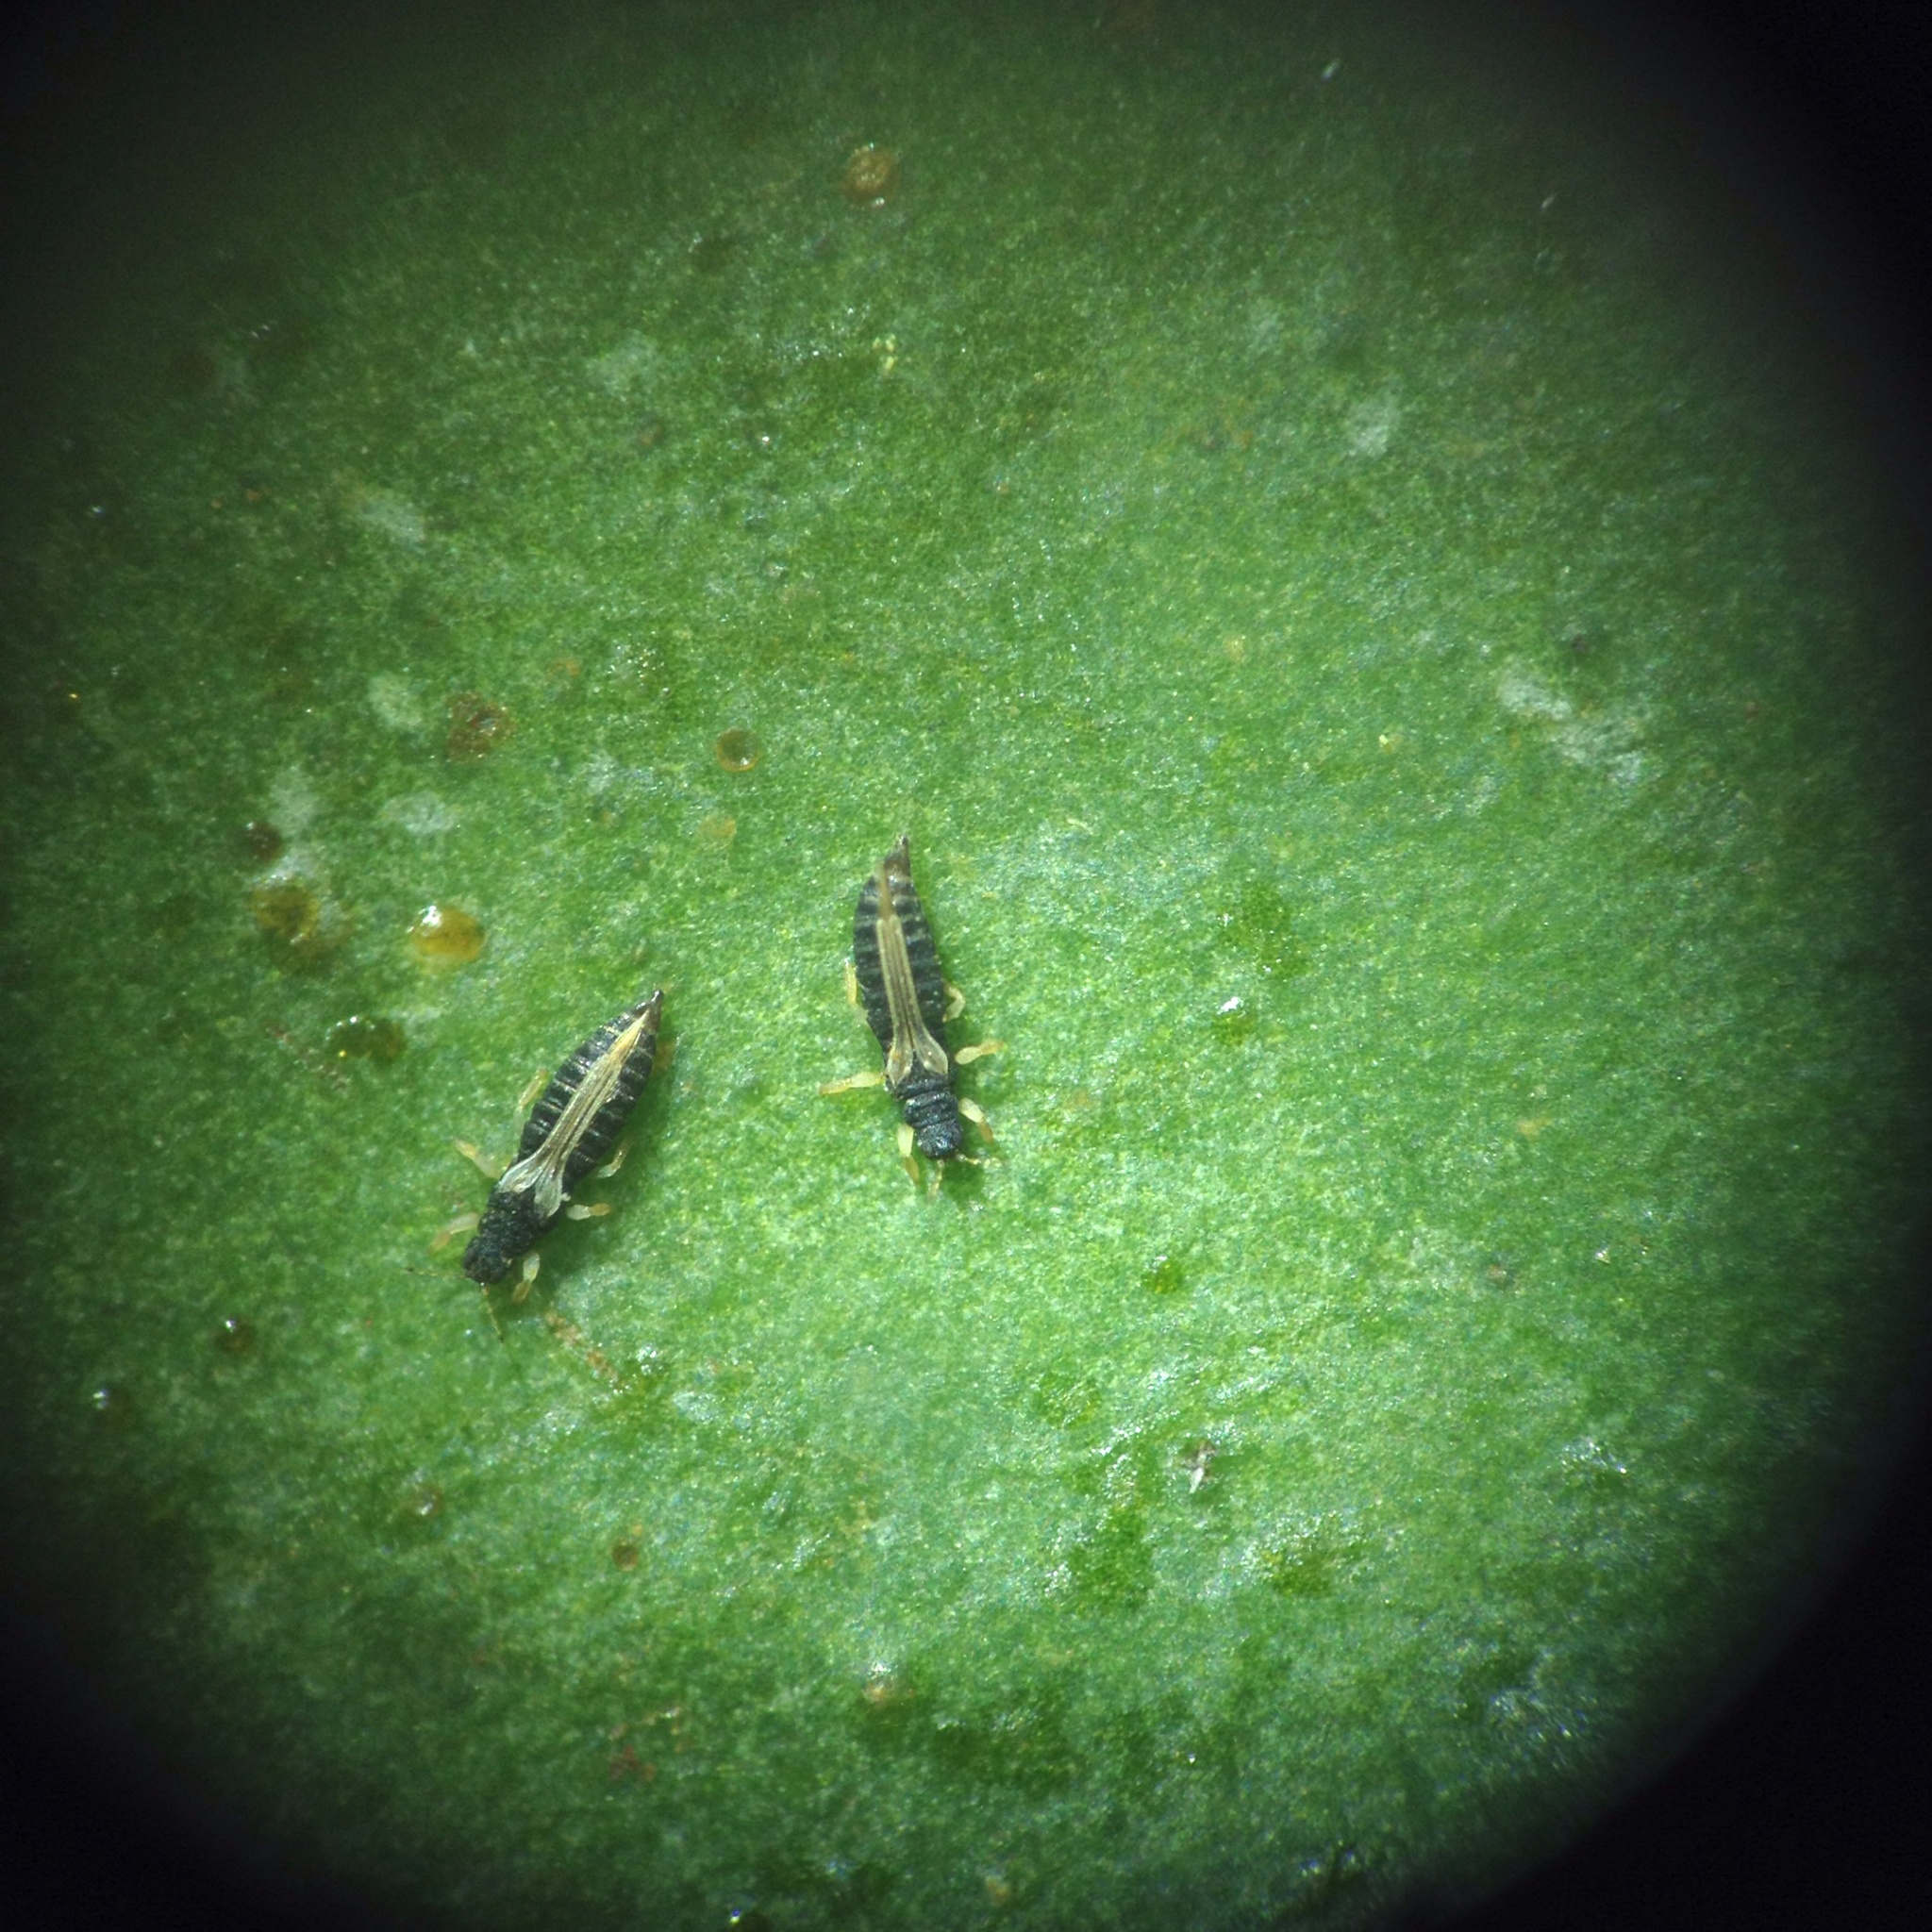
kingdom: Animalia
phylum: Arthropoda
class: Insecta
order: Thysanoptera
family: Thripidae
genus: Heliothrips
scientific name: Heliothrips haemorrhoidalis
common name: Thrips
